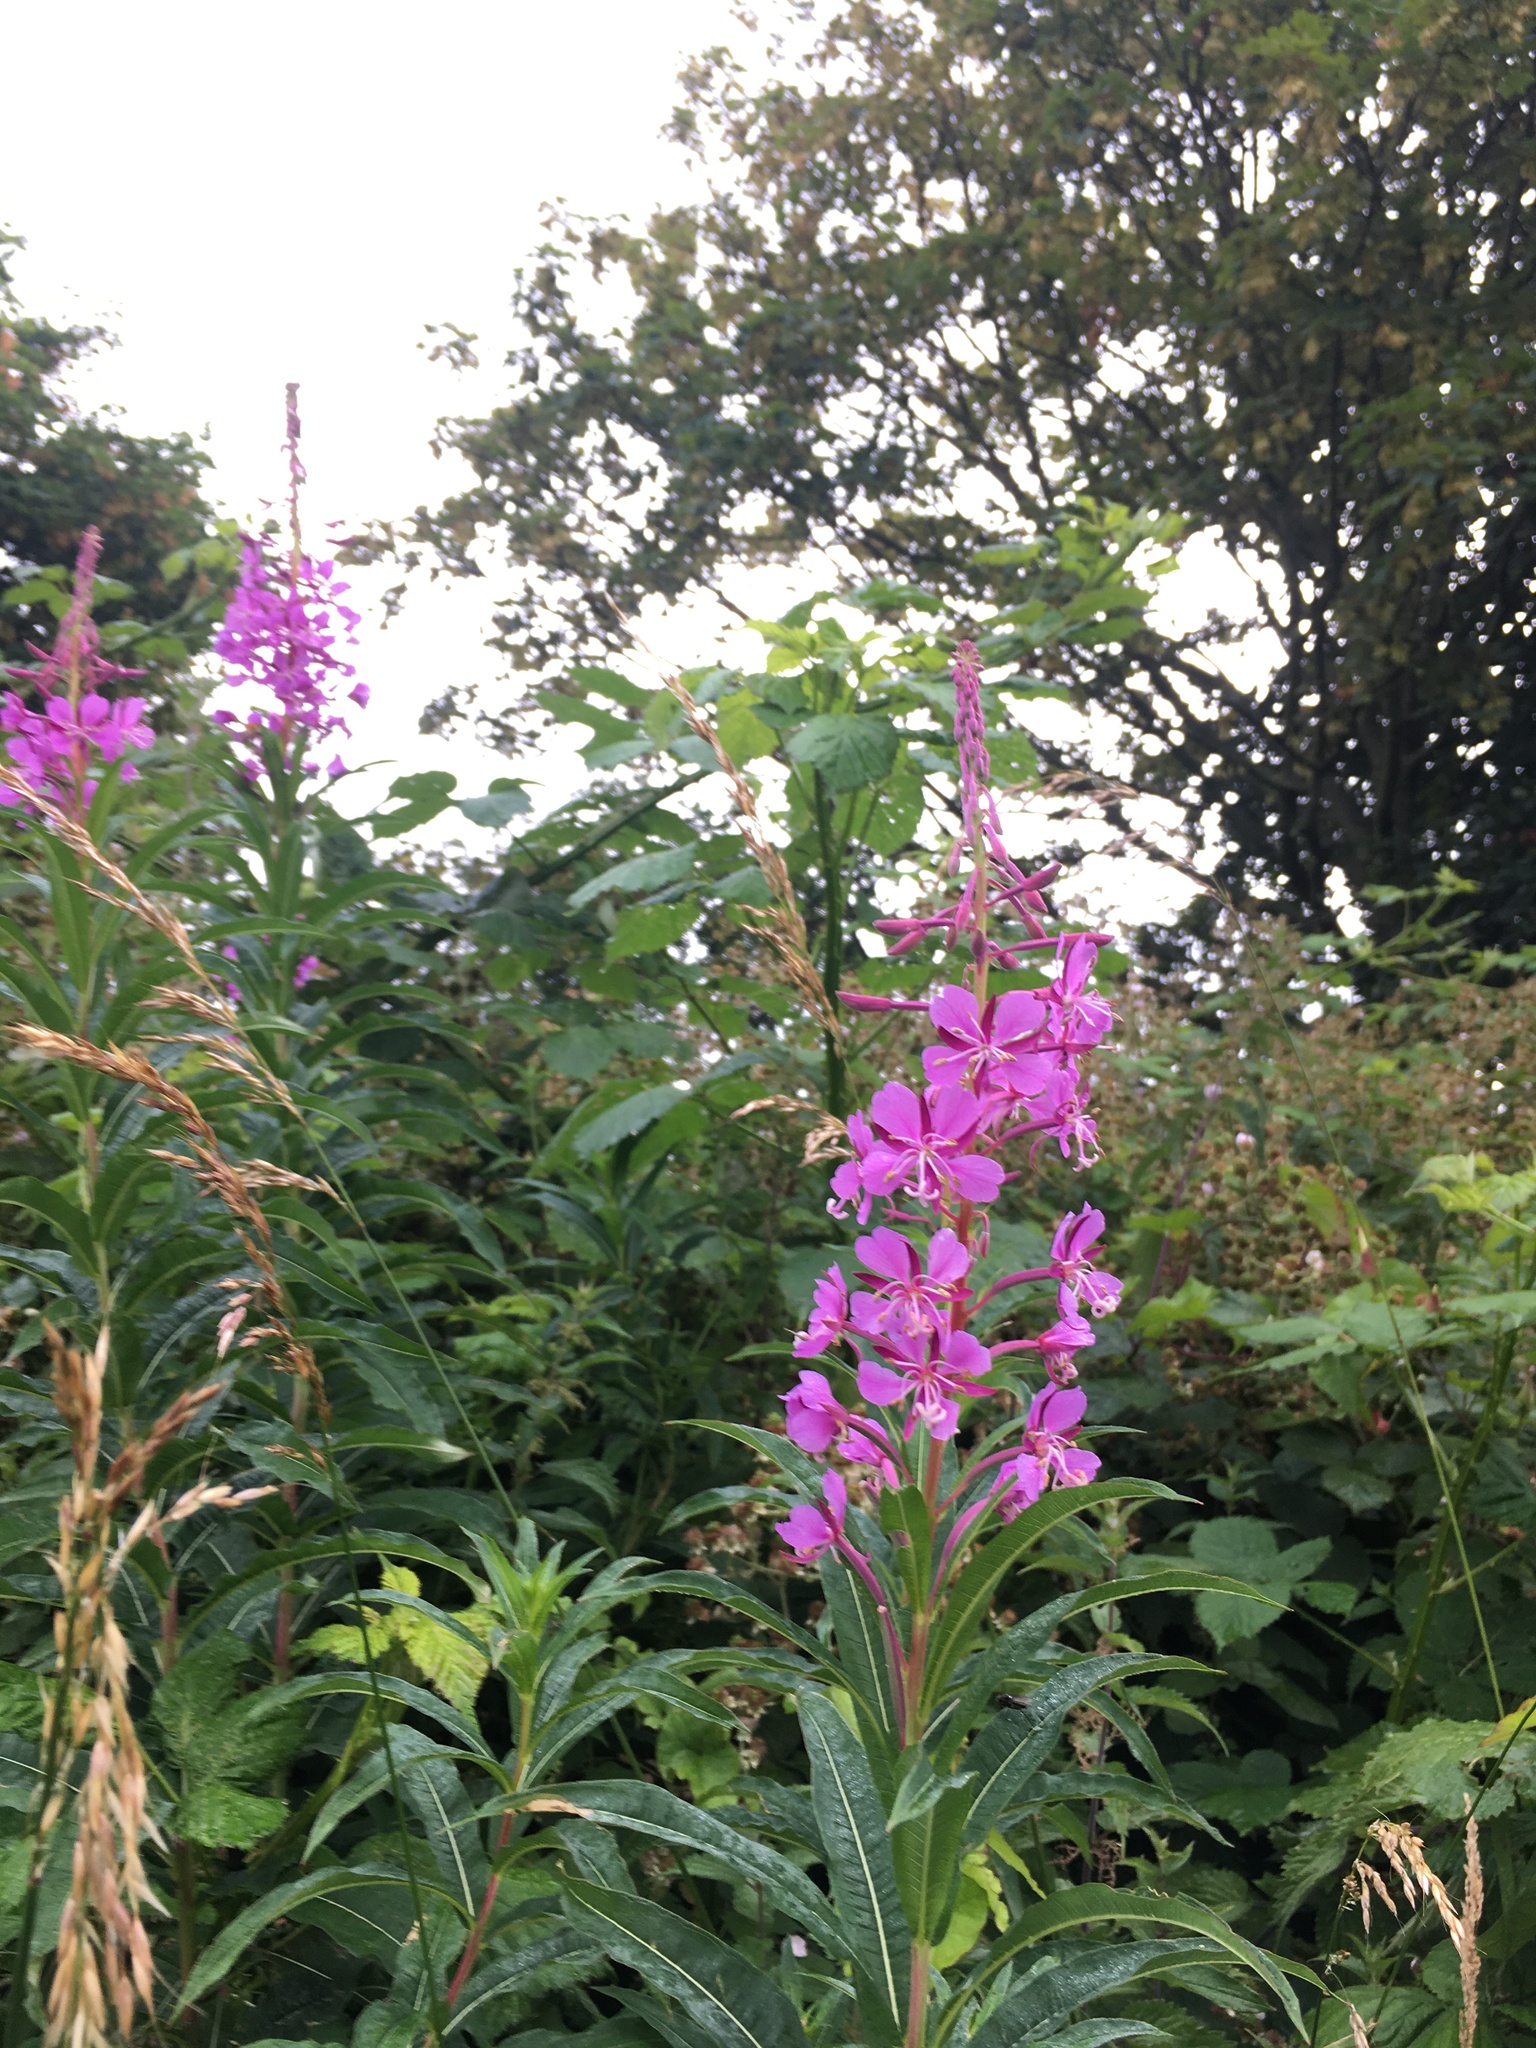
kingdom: Plantae
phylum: Tracheophyta
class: Magnoliopsida
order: Myrtales
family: Onagraceae
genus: Chamaenerion
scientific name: Chamaenerion angustifolium
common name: Fireweed
